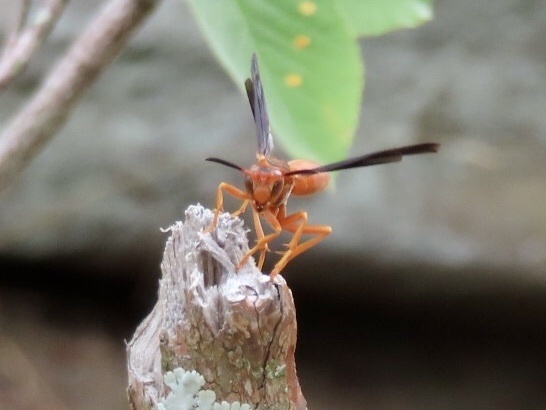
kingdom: Animalia
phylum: Arthropoda
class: Insecta
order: Hymenoptera
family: Vespidae
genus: Fuscopolistes
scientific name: Fuscopolistes
